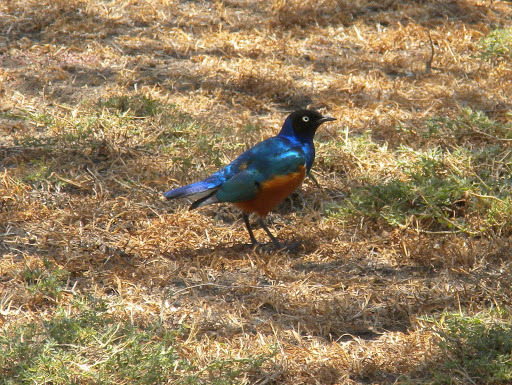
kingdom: Animalia
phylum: Chordata
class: Aves
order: Passeriformes
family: Sturnidae
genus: Lamprotornis
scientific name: Lamprotornis superbus
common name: Superb starling
